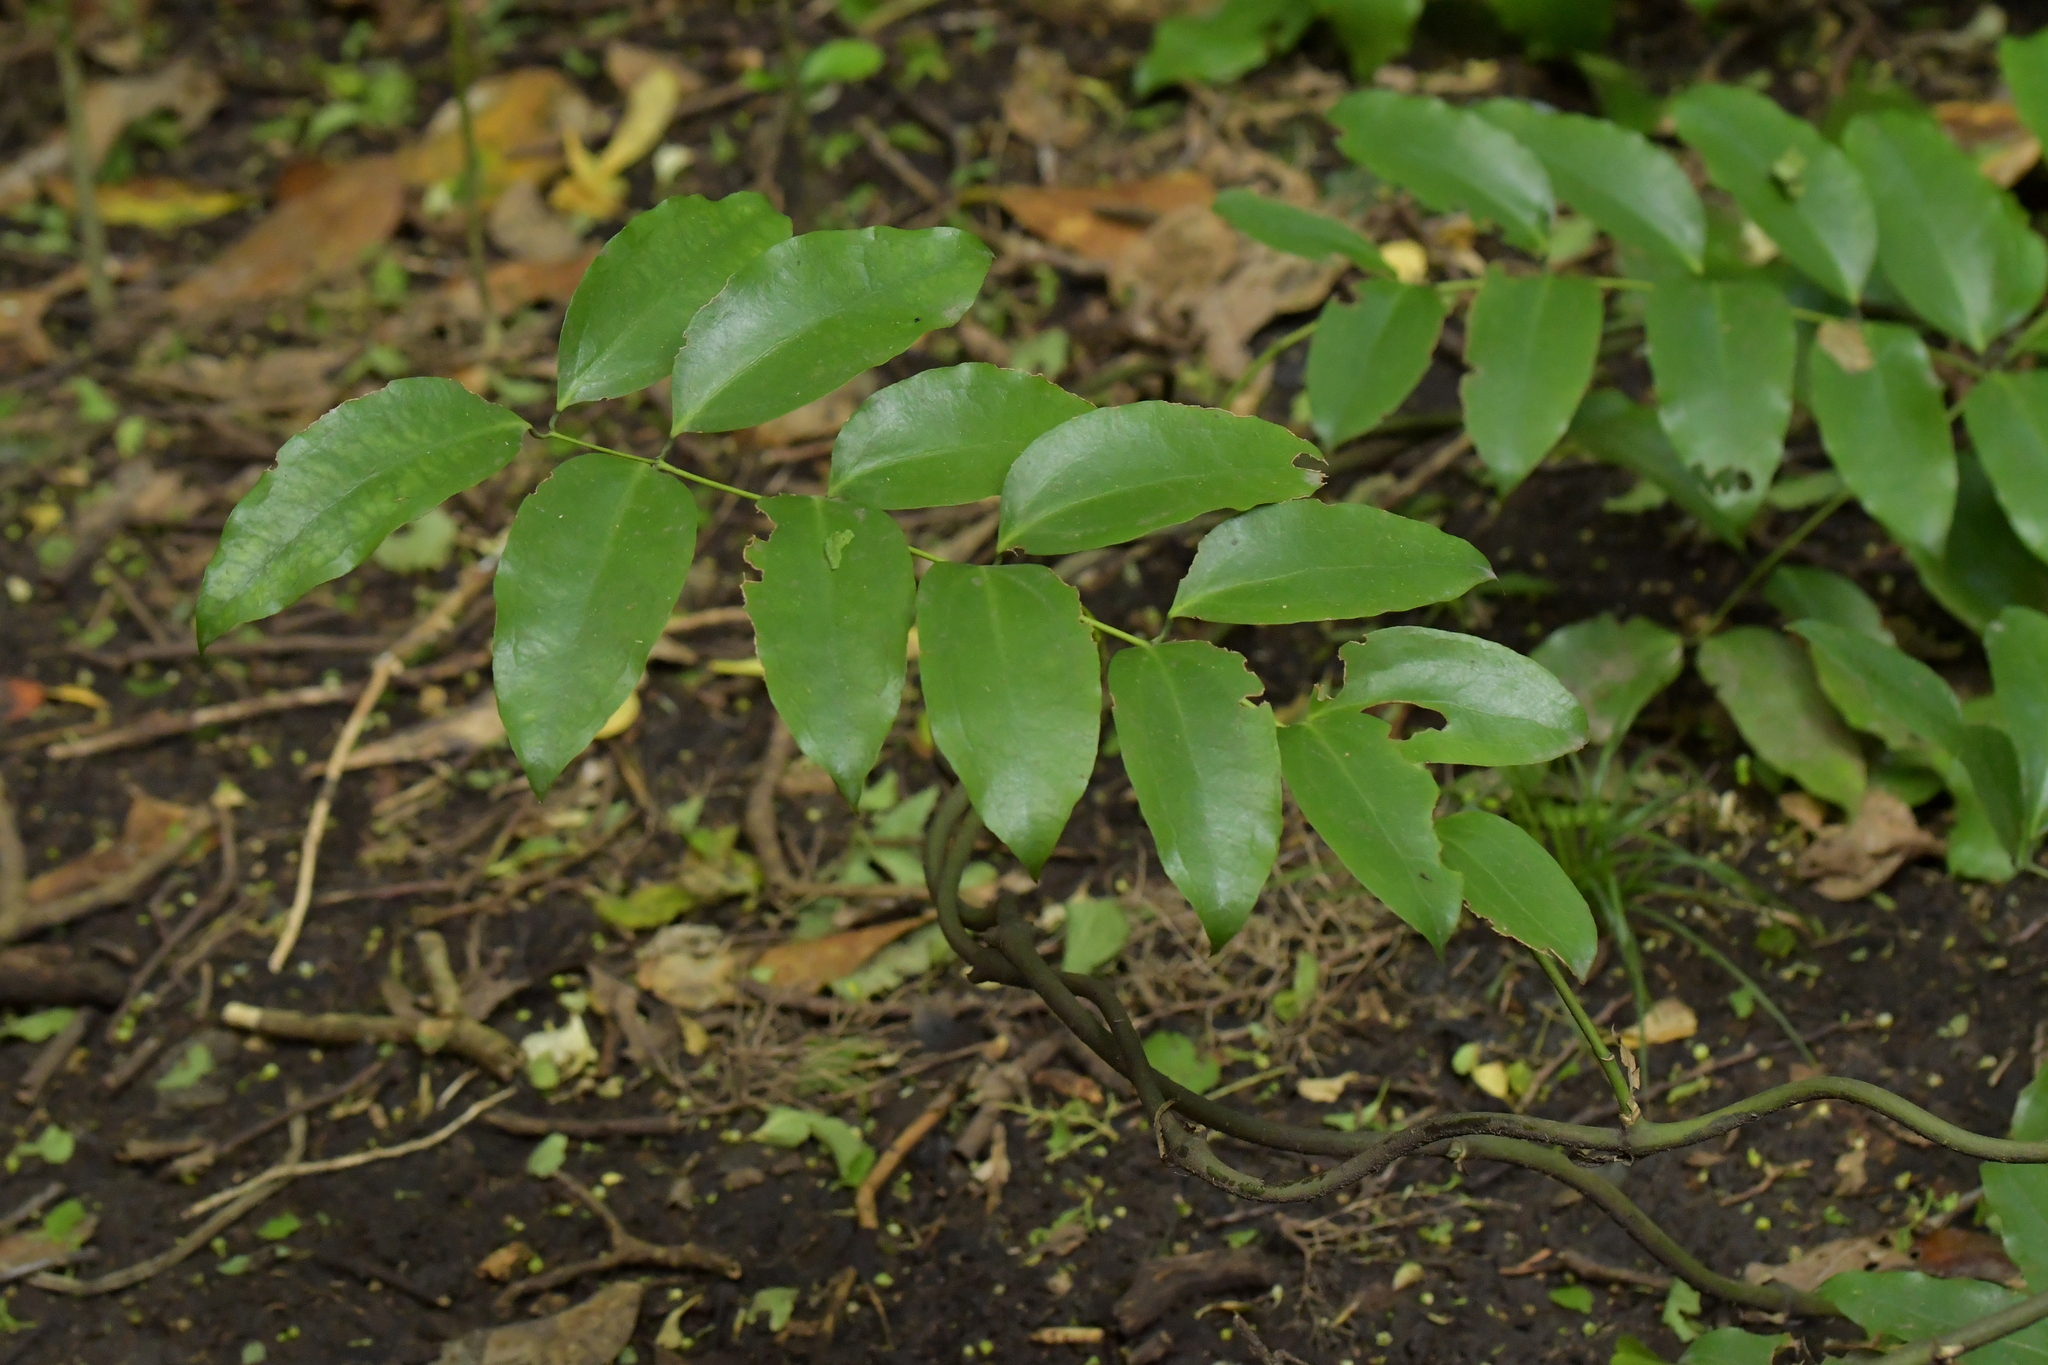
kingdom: Plantae
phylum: Tracheophyta
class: Liliopsida
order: Liliales
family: Ripogonaceae
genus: Ripogonum
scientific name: Ripogonum scandens
